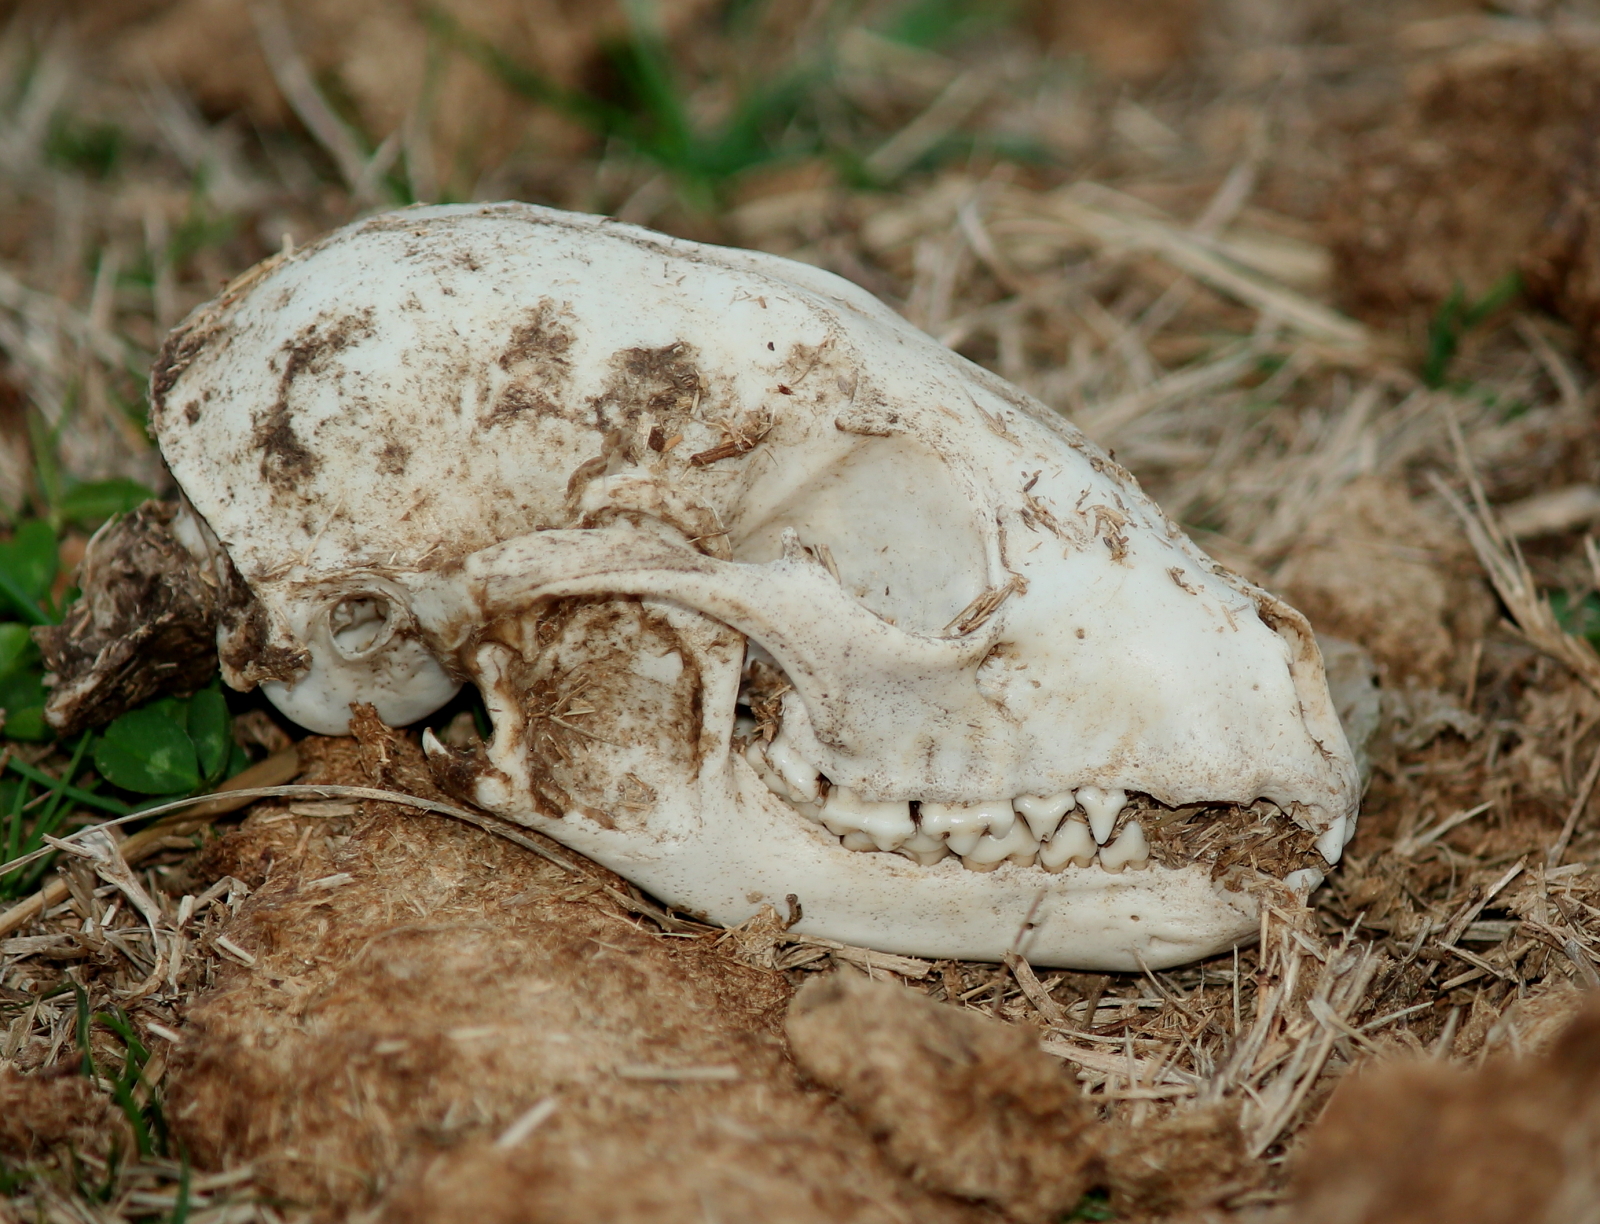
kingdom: Animalia
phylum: Chordata
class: Mammalia
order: Carnivora
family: Procyonidae
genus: Procyon
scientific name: Procyon lotor
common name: Raccoon
